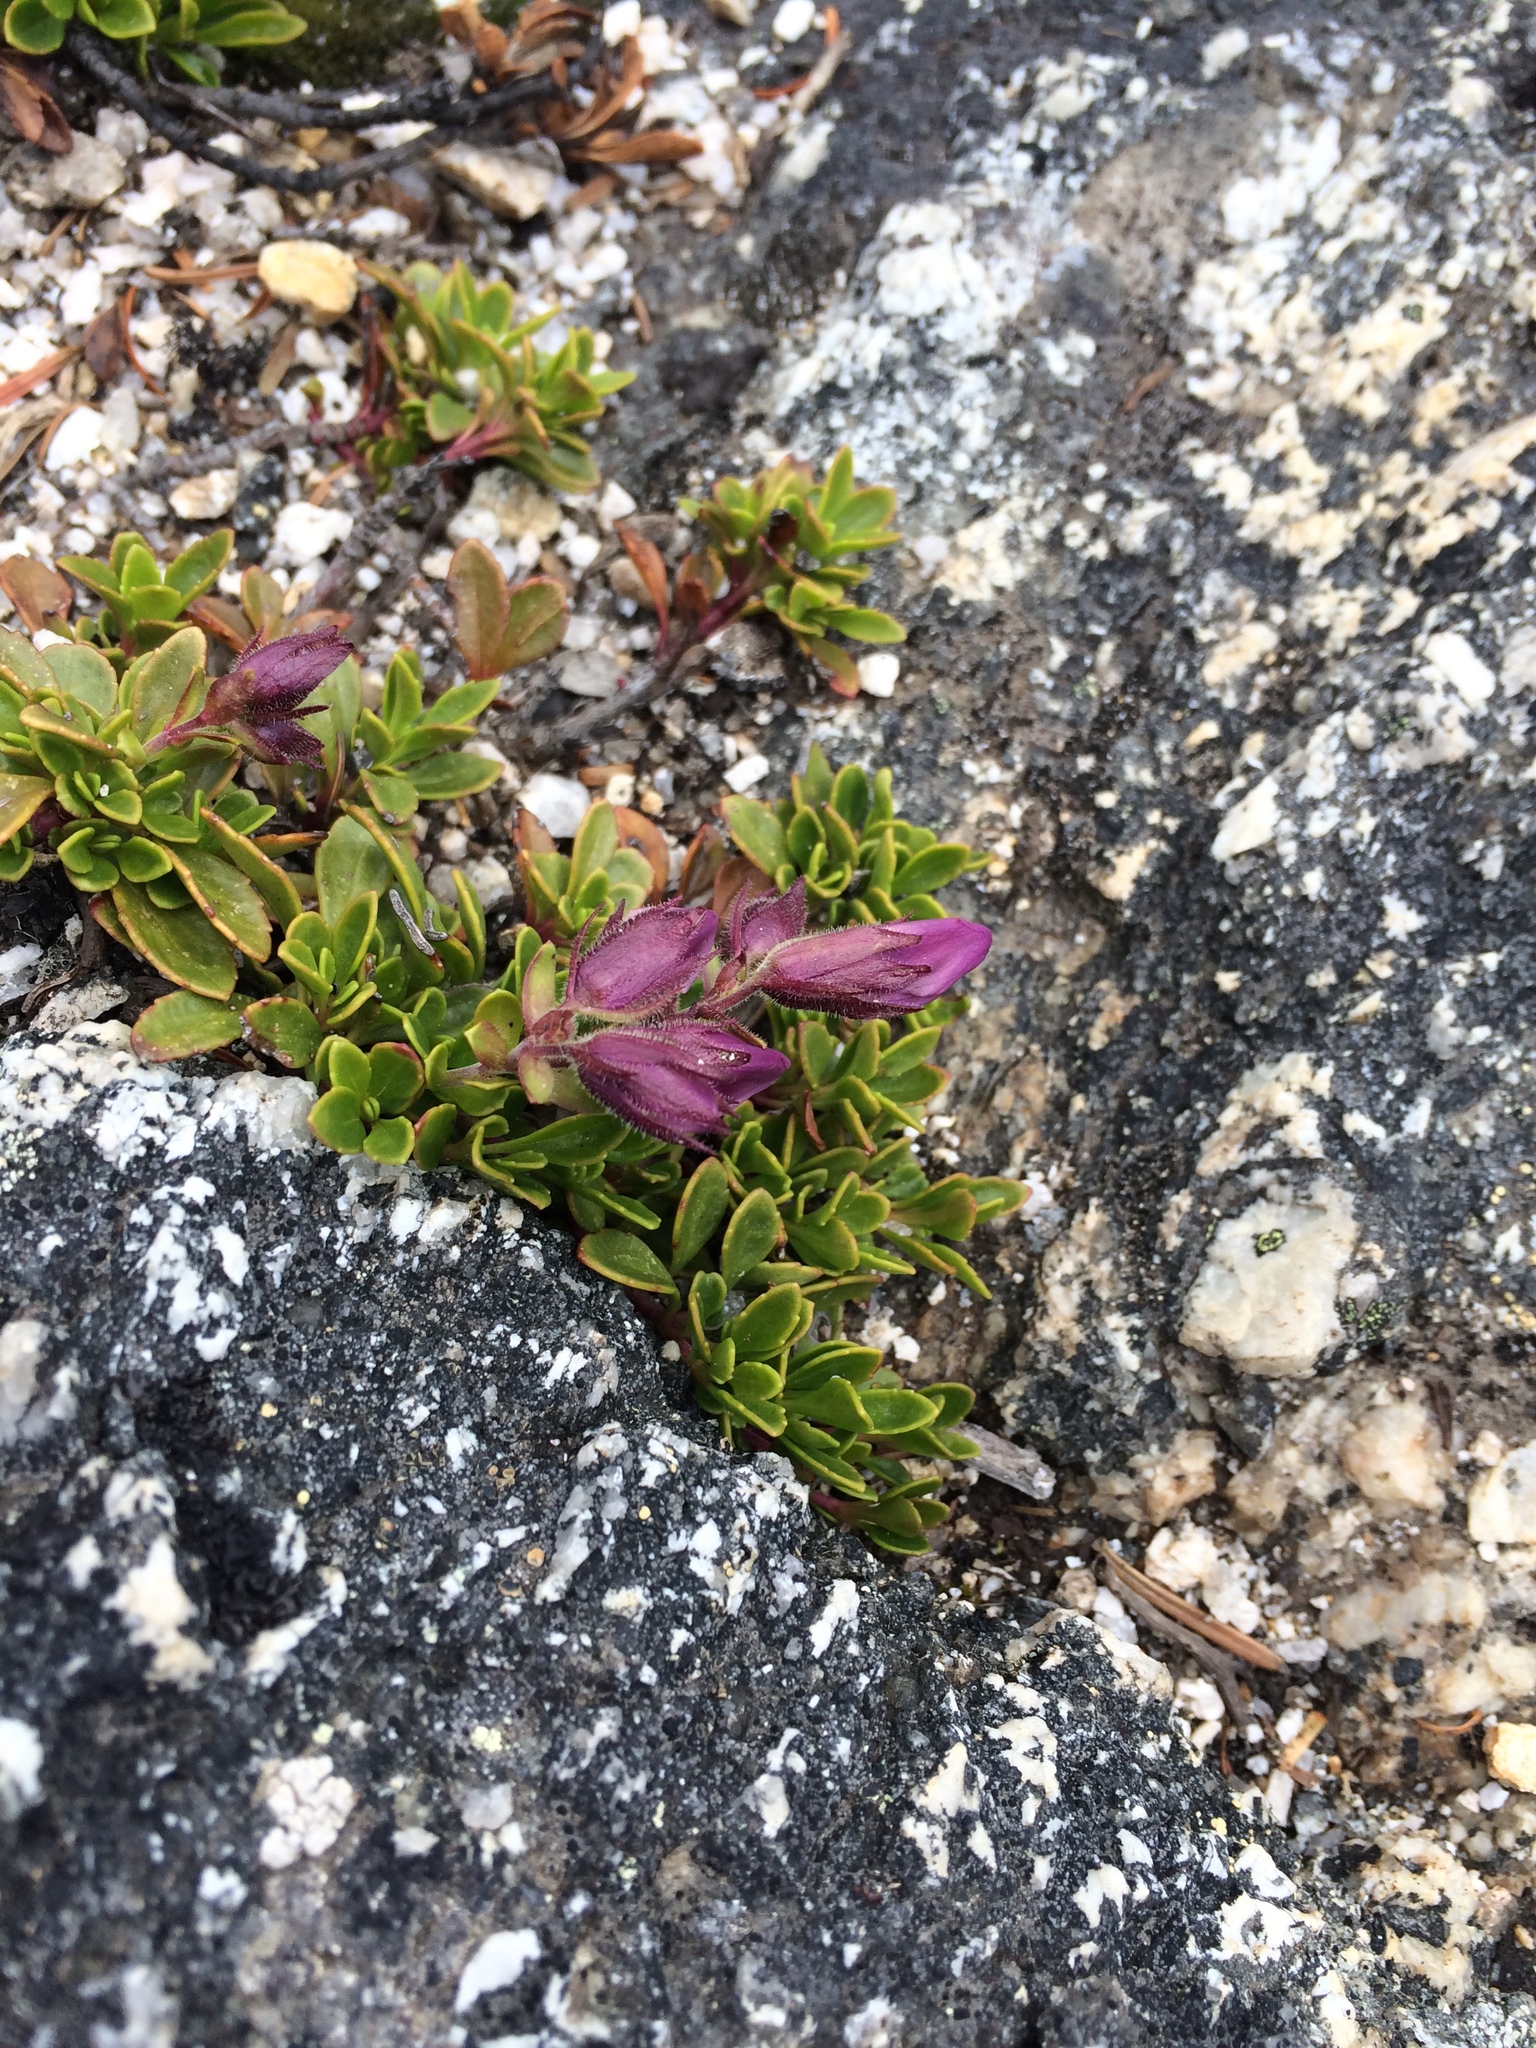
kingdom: Plantae
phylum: Tracheophyta
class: Magnoliopsida
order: Lamiales
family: Plantaginaceae
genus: Penstemon
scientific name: Penstemon davidsonii
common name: Davidson's penstemon
